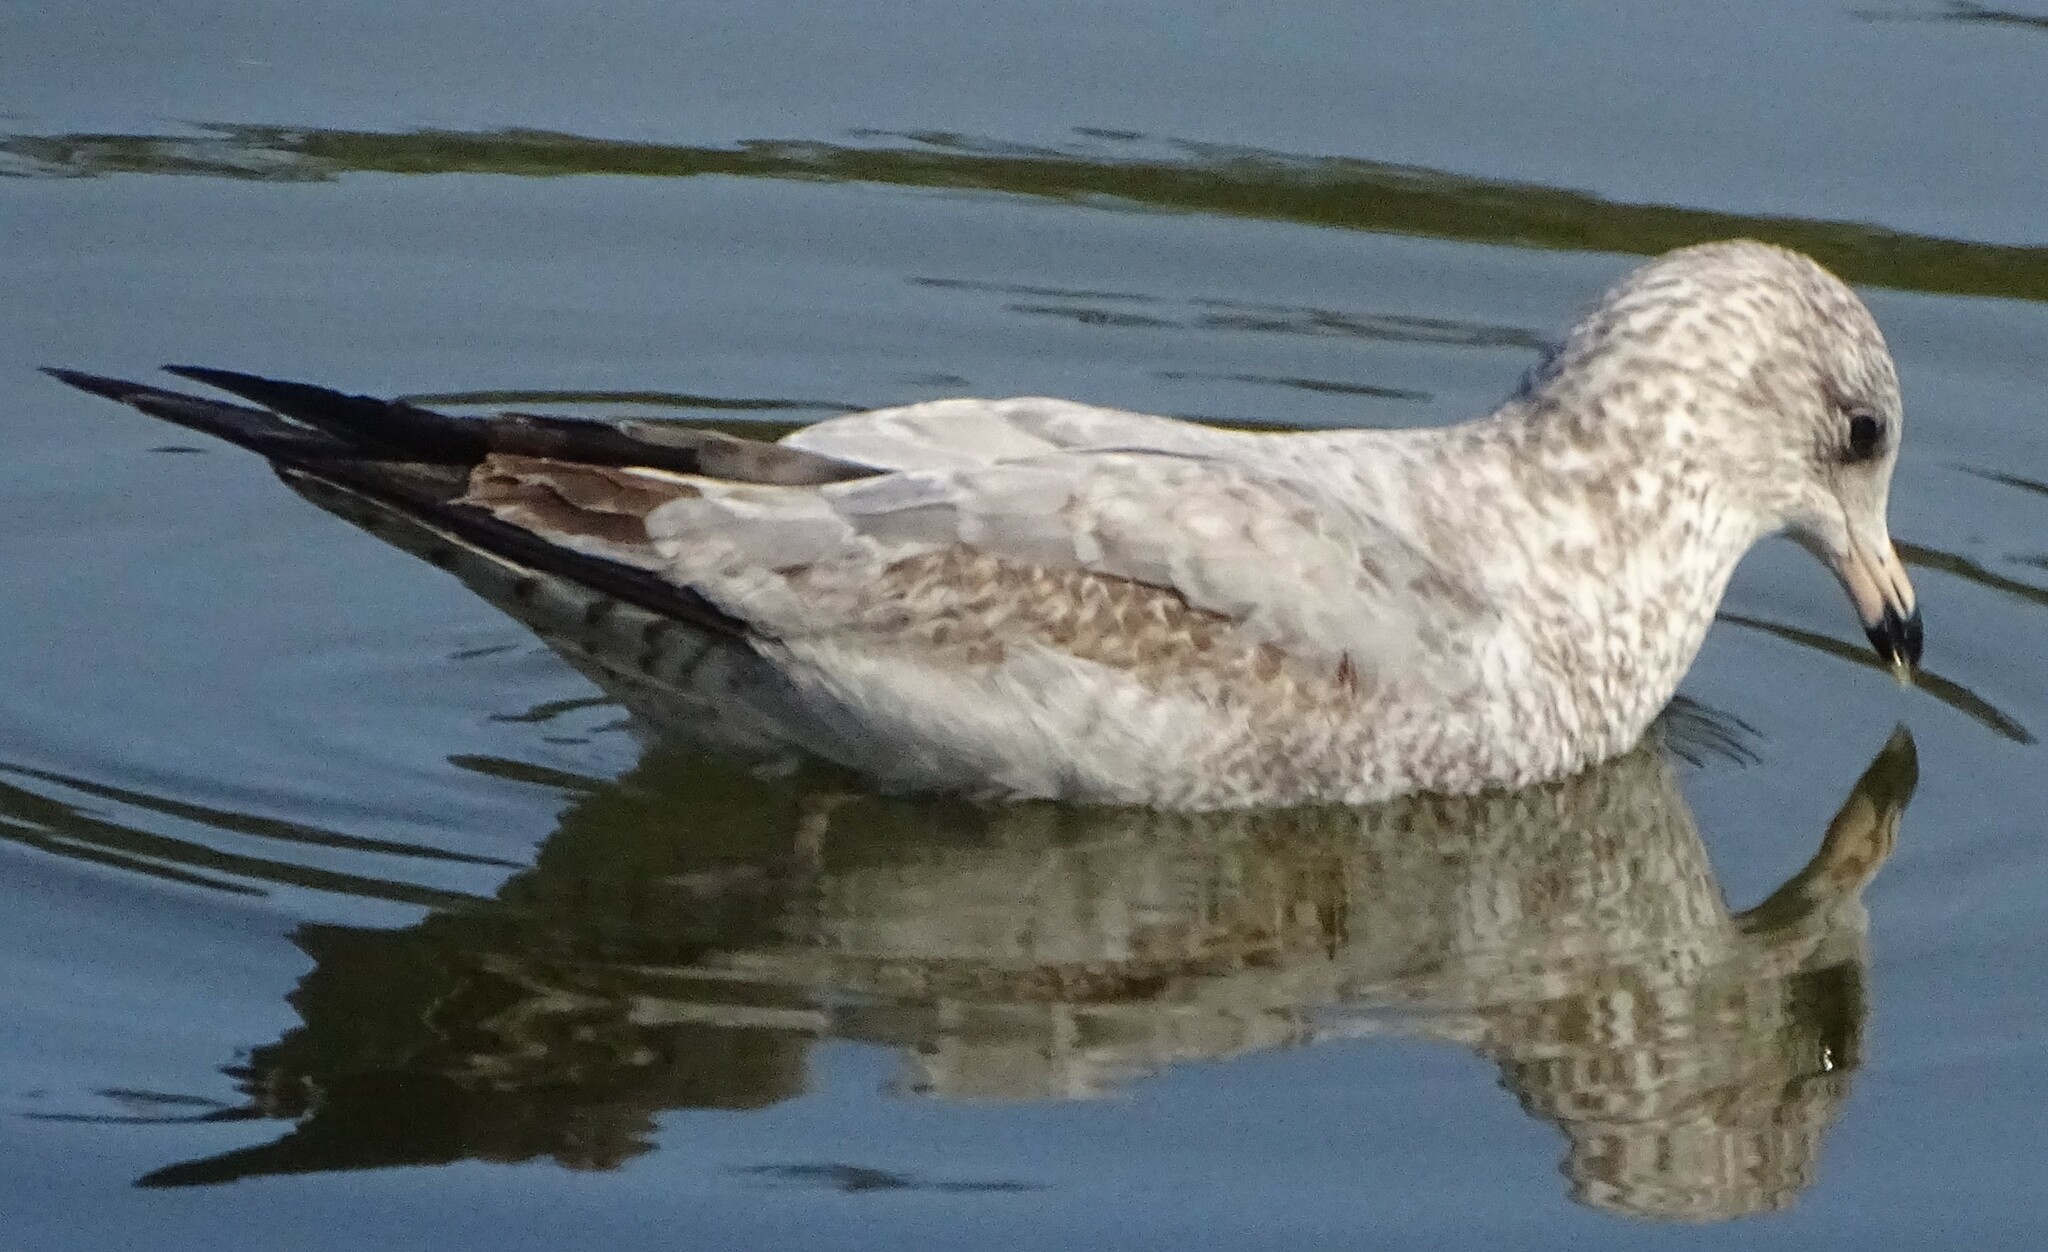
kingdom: Animalia
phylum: Chordata
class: Aves
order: Charadriiformes
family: Laridae
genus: Larus
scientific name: Larus delawarensis
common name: Ring-billed gull
